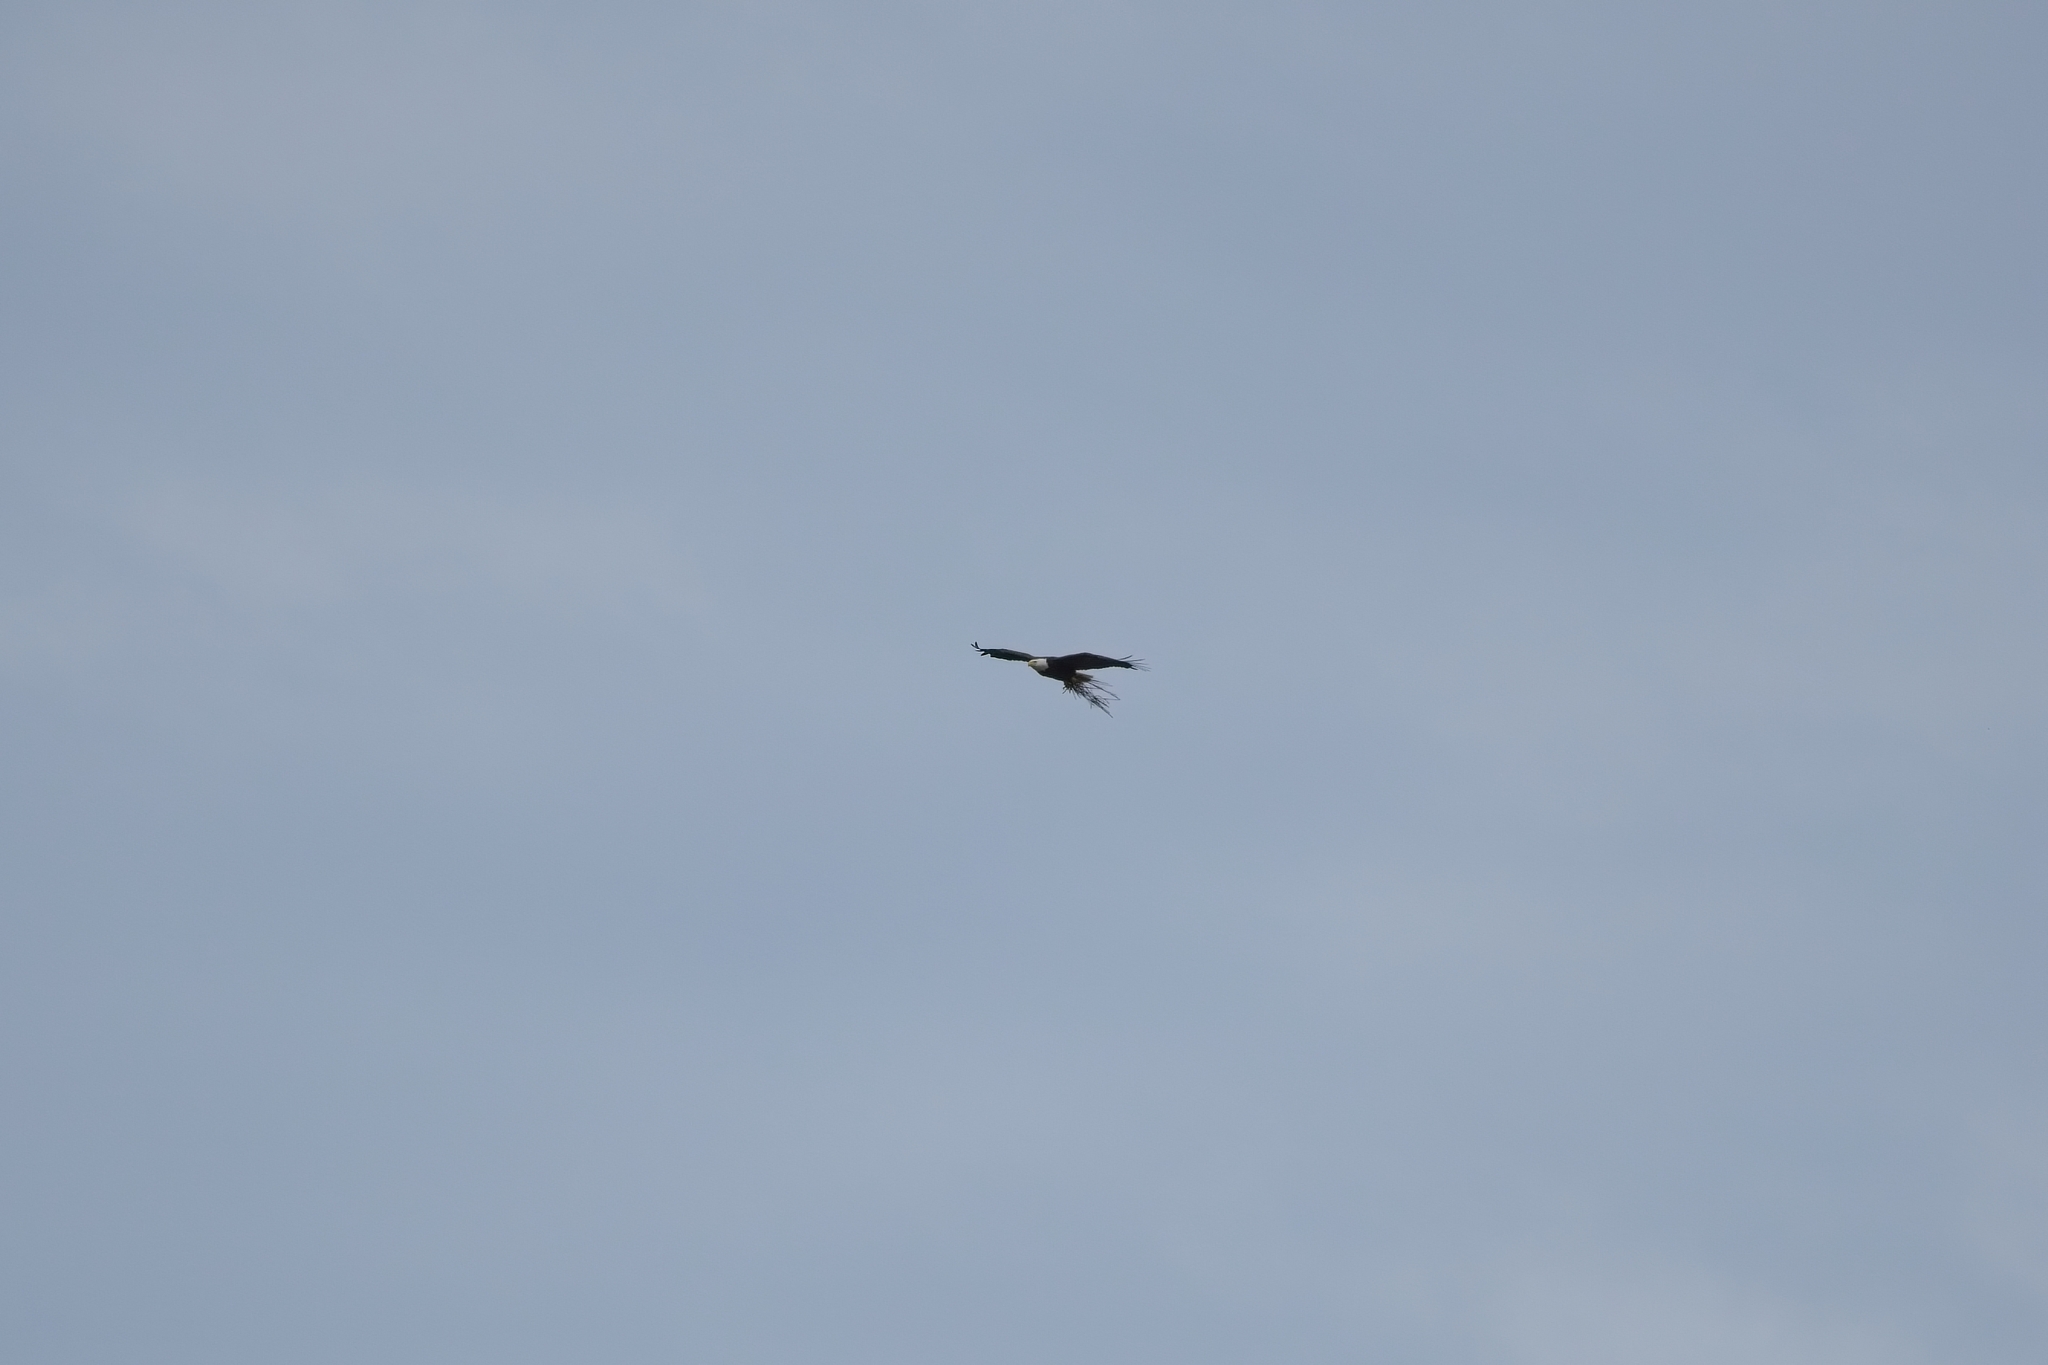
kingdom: Animalia
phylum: Chordata
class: Aves
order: Accipitriformes
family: Accipitridae
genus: Haliaeetus
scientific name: Haliaeetus leucocephalus
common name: Bald eagle
